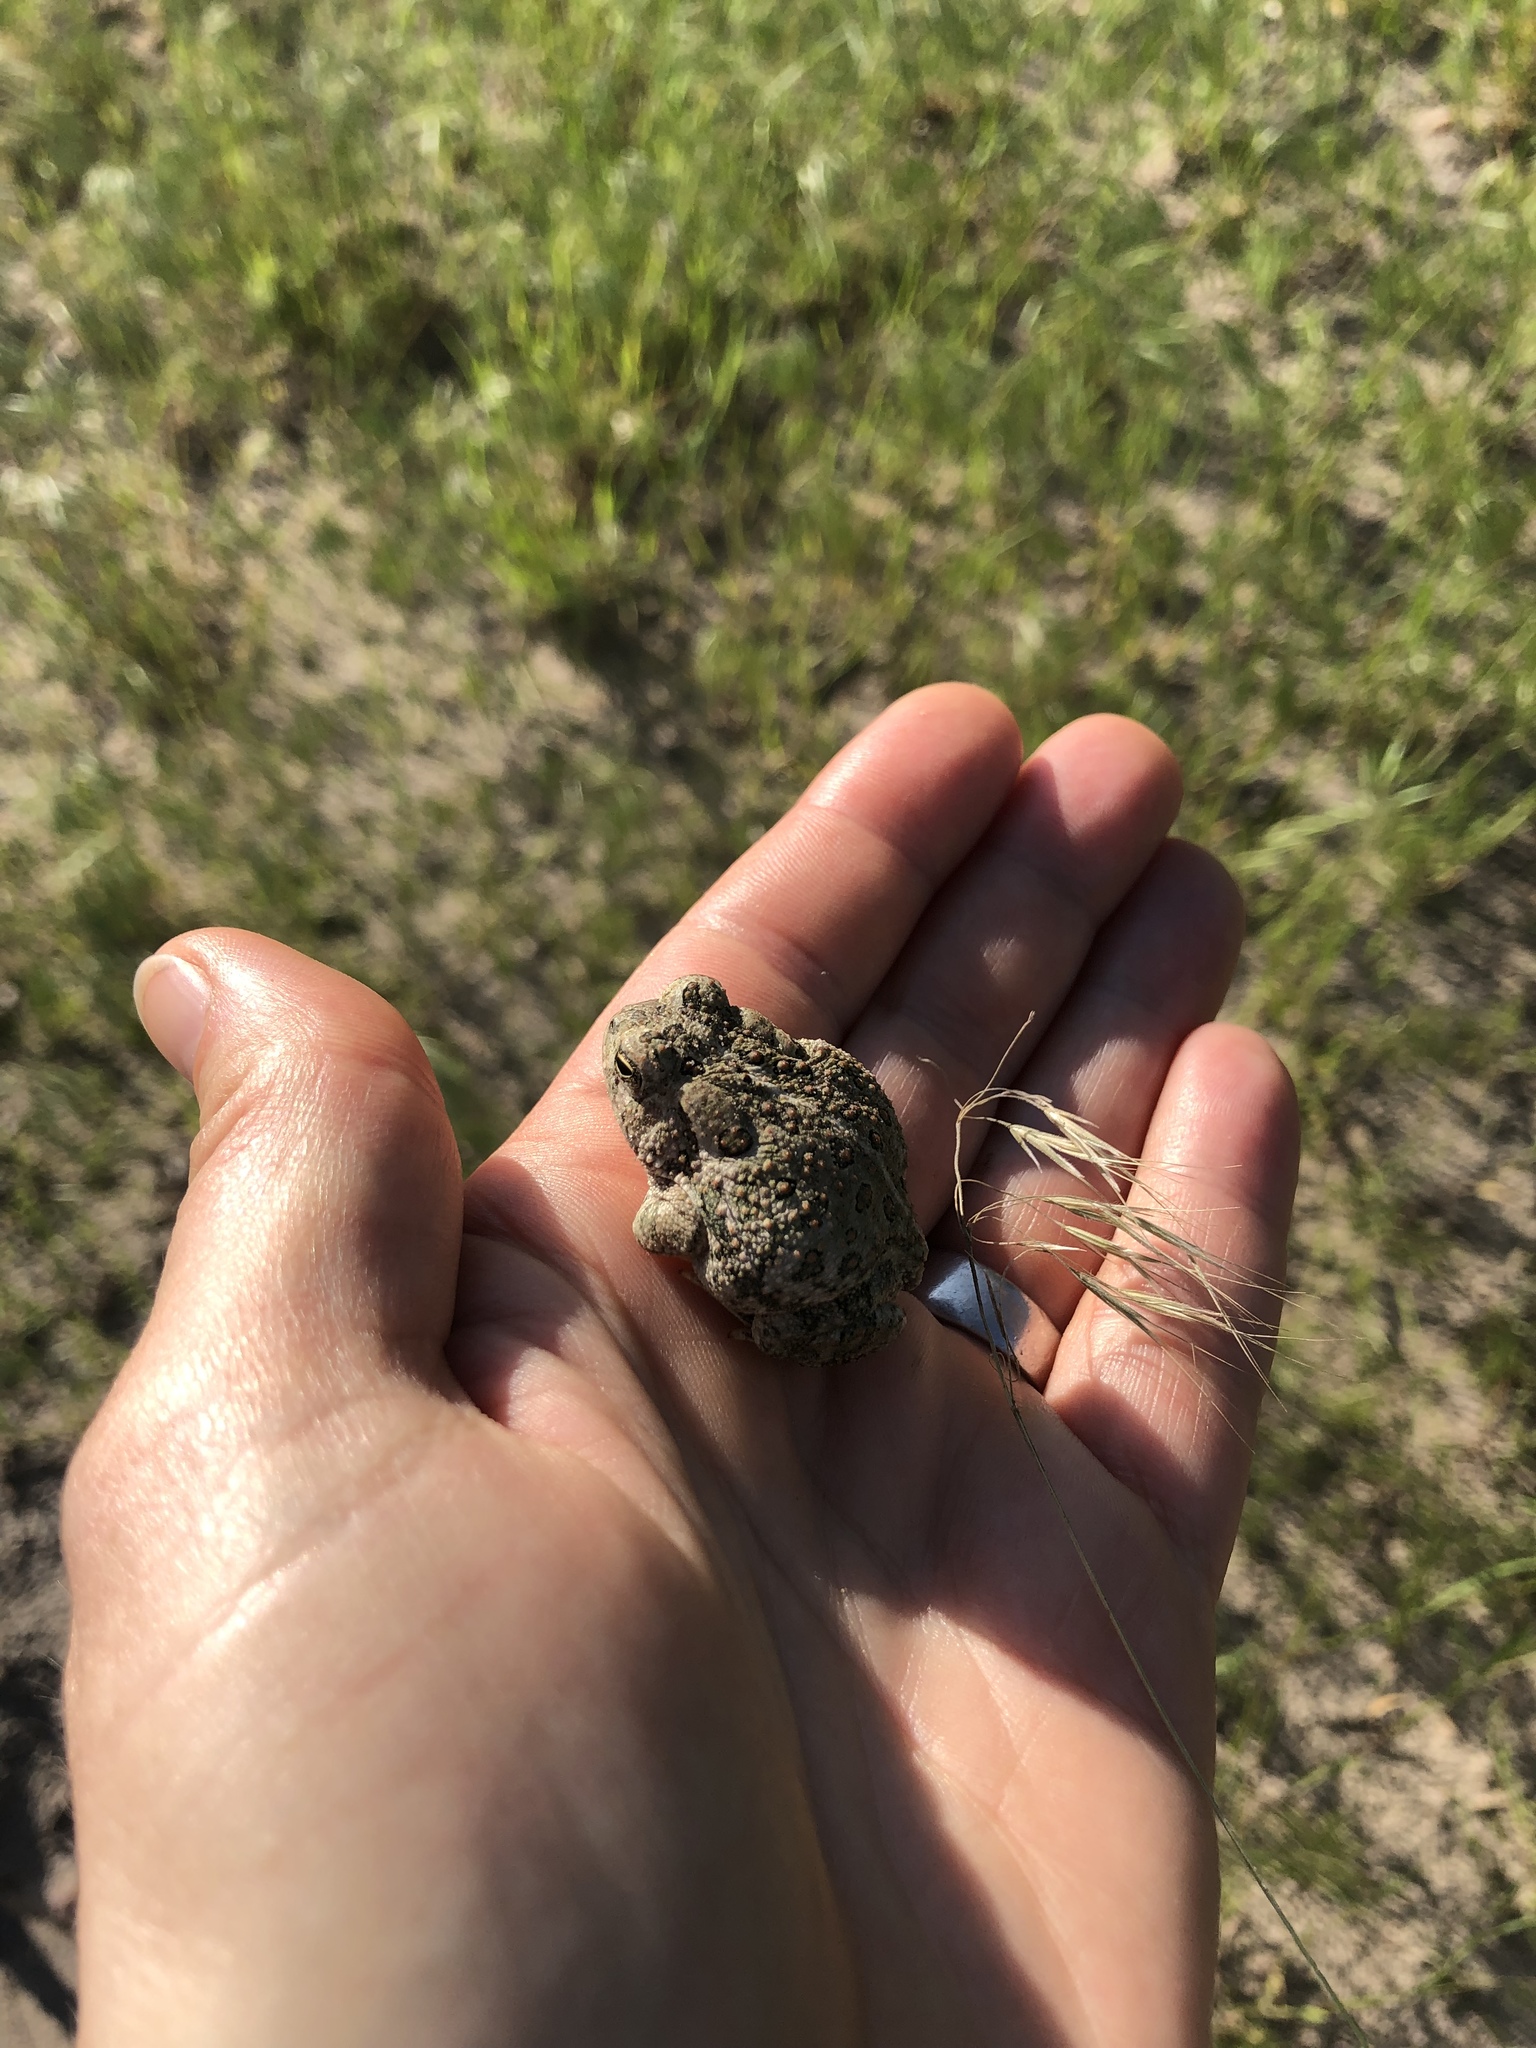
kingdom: Animalia
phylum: Chordata
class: Amphibia
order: Anura
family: Bufonidae
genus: Anaxyrus
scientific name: Anaxyrus woodhousii
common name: Woodhouse's toad
